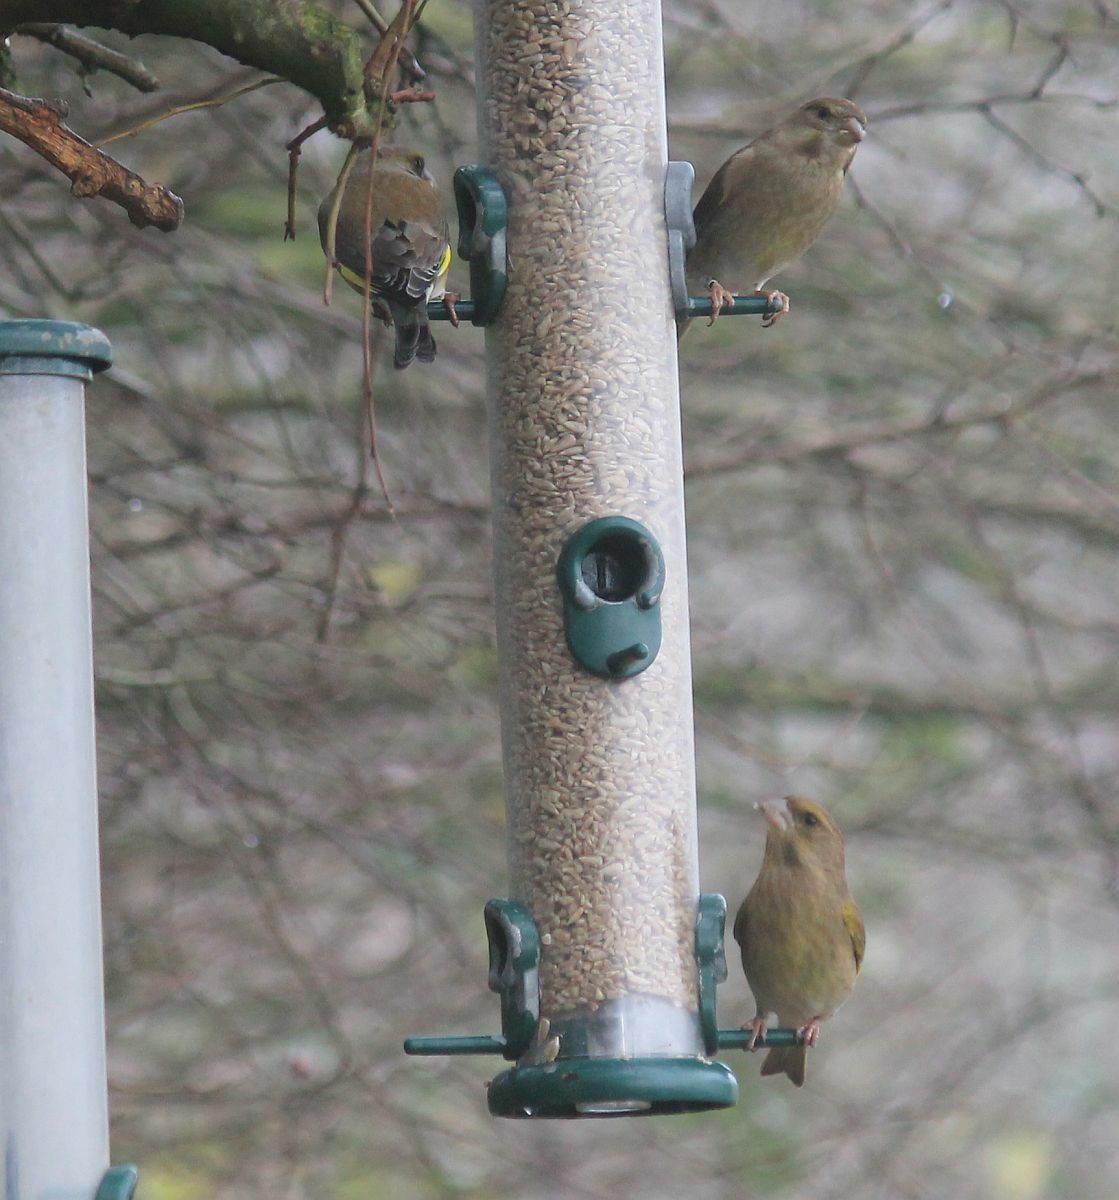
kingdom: Plantae
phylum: Tracheophyta
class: Liliopsida
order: Poales
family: Poaceae
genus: Chloris
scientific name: Chloris chloris
